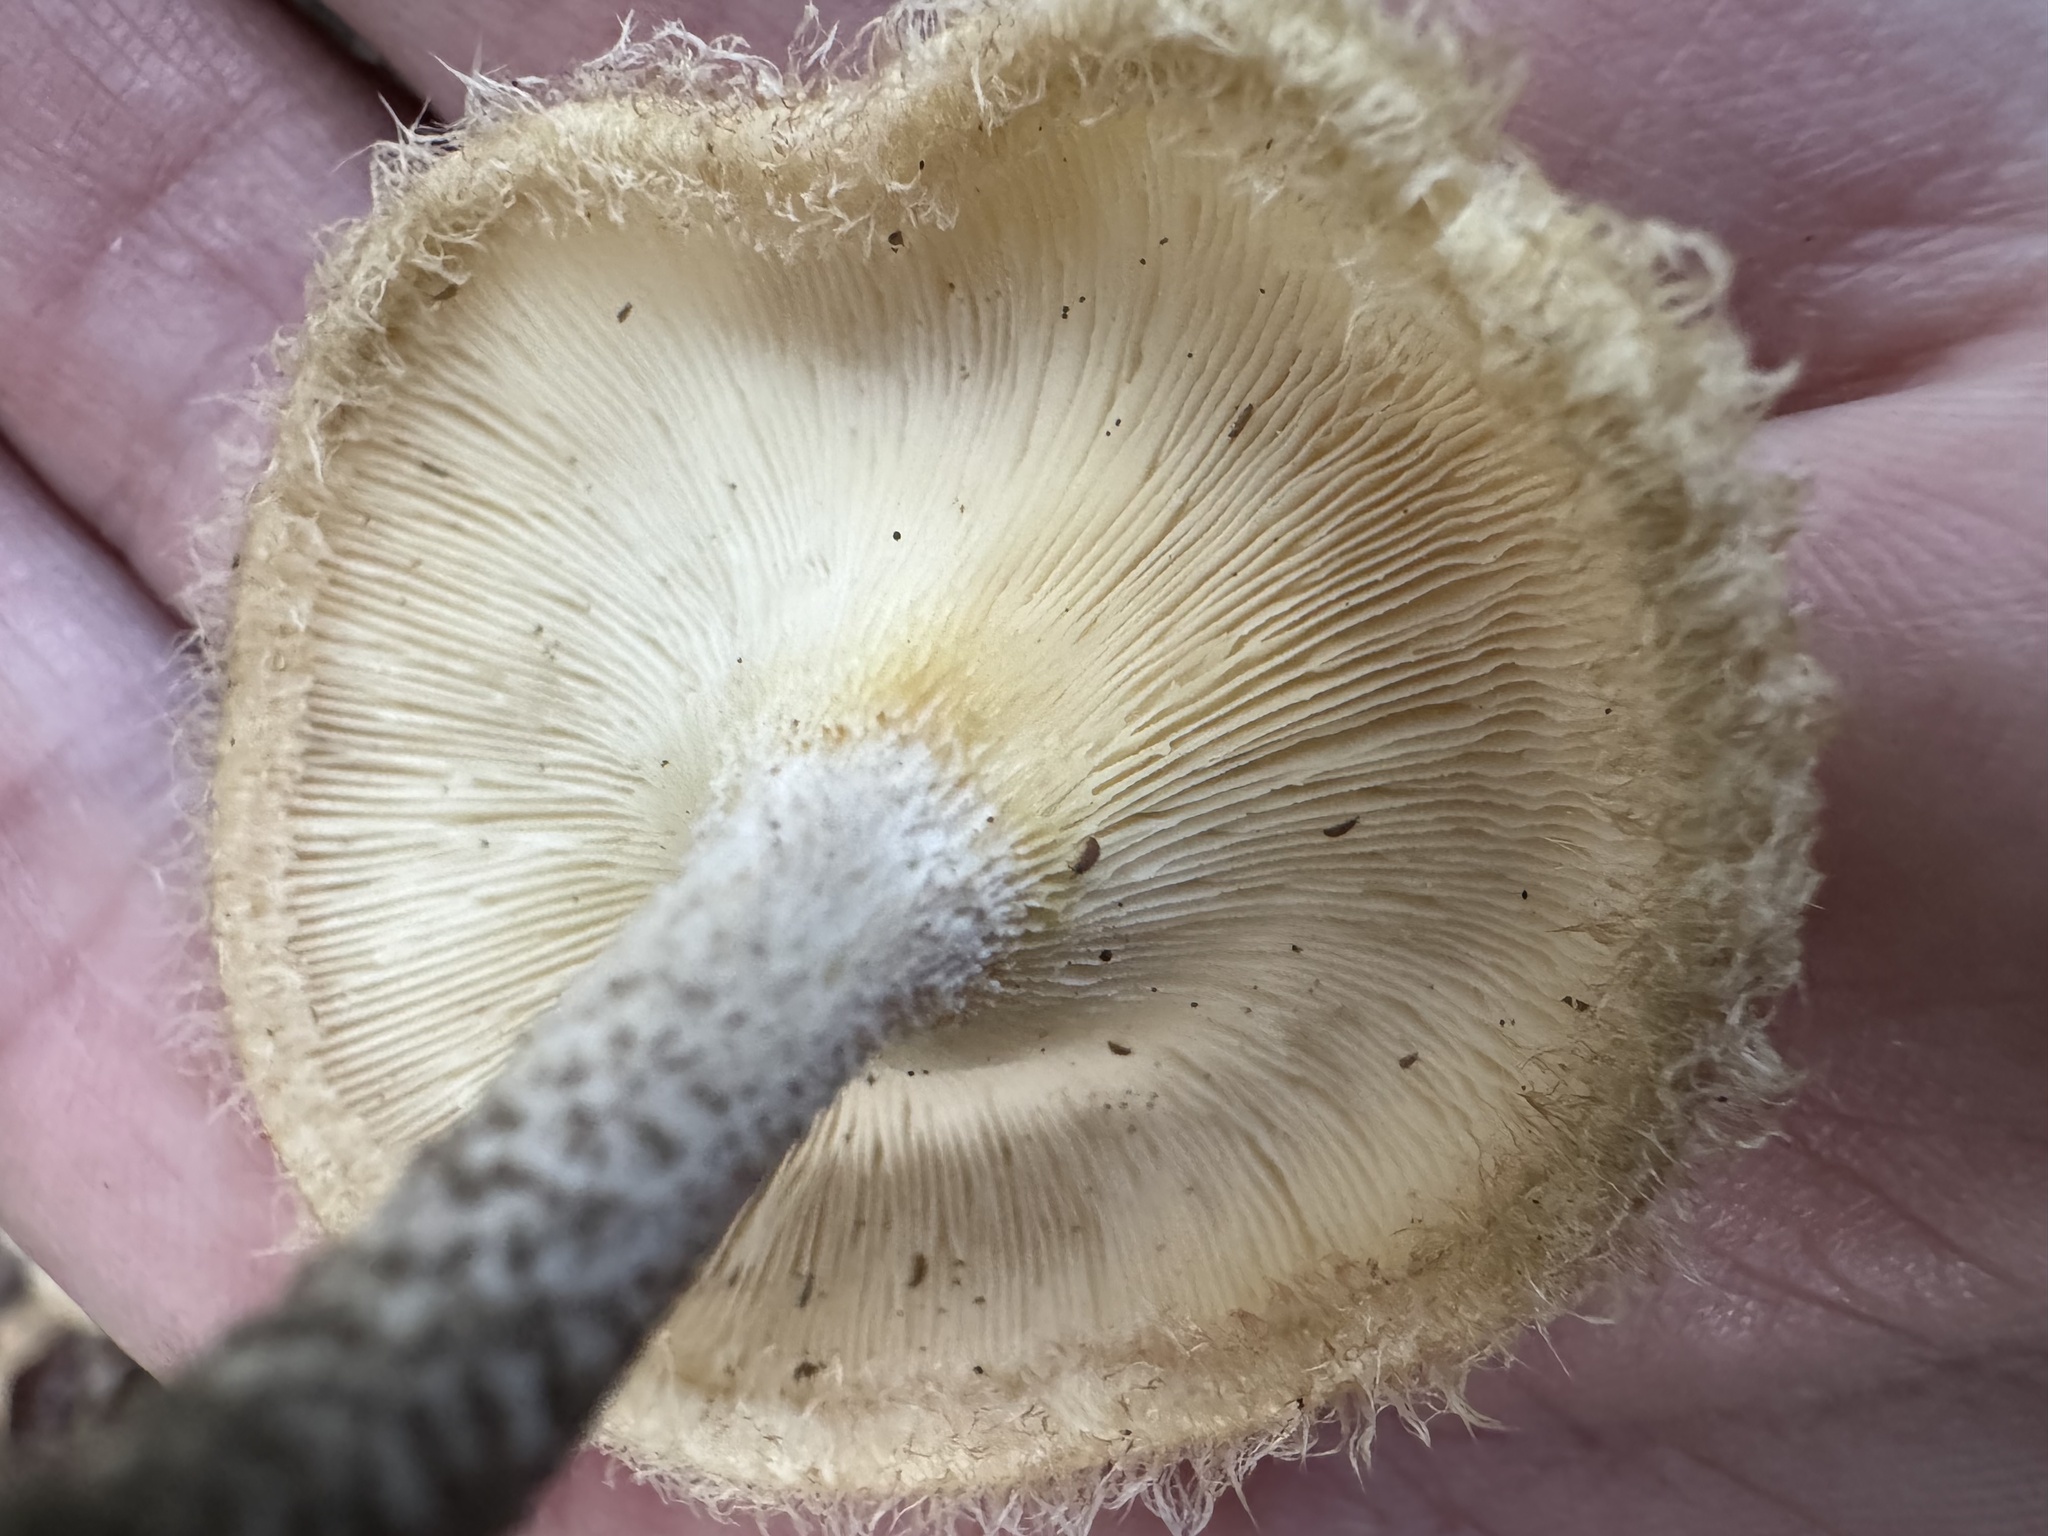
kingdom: Fungi
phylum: Basidiomycota
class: Agaricomycetes
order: Polyporales
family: Polyporaceae
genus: Lentinus
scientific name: Lentinus crinitus
